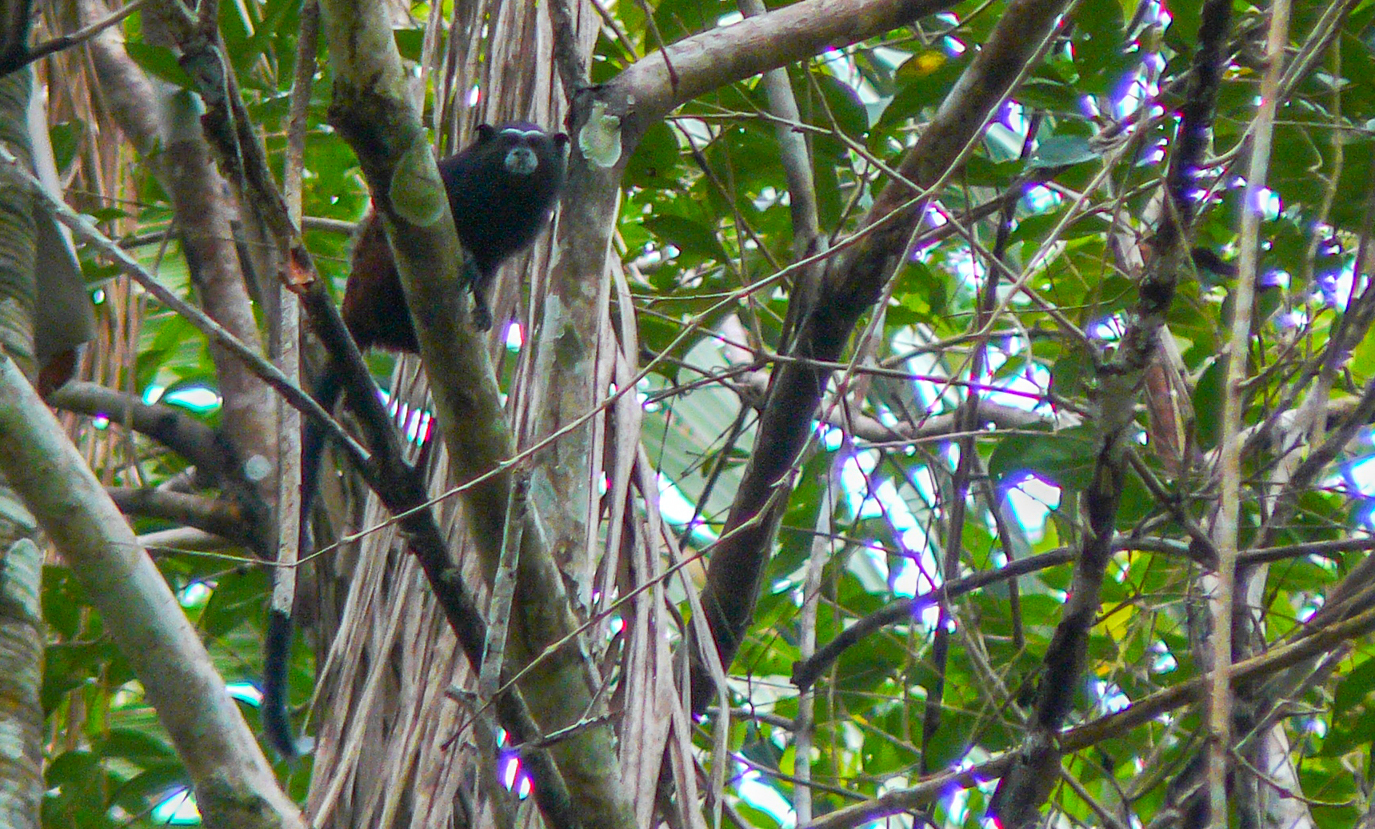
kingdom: Animalia
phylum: Chordata
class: Mammalia
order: Primates
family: Callitrichidae
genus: Leontocebus
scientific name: Leontocebus weddelli
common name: Weddell's saddle-back tamarin
